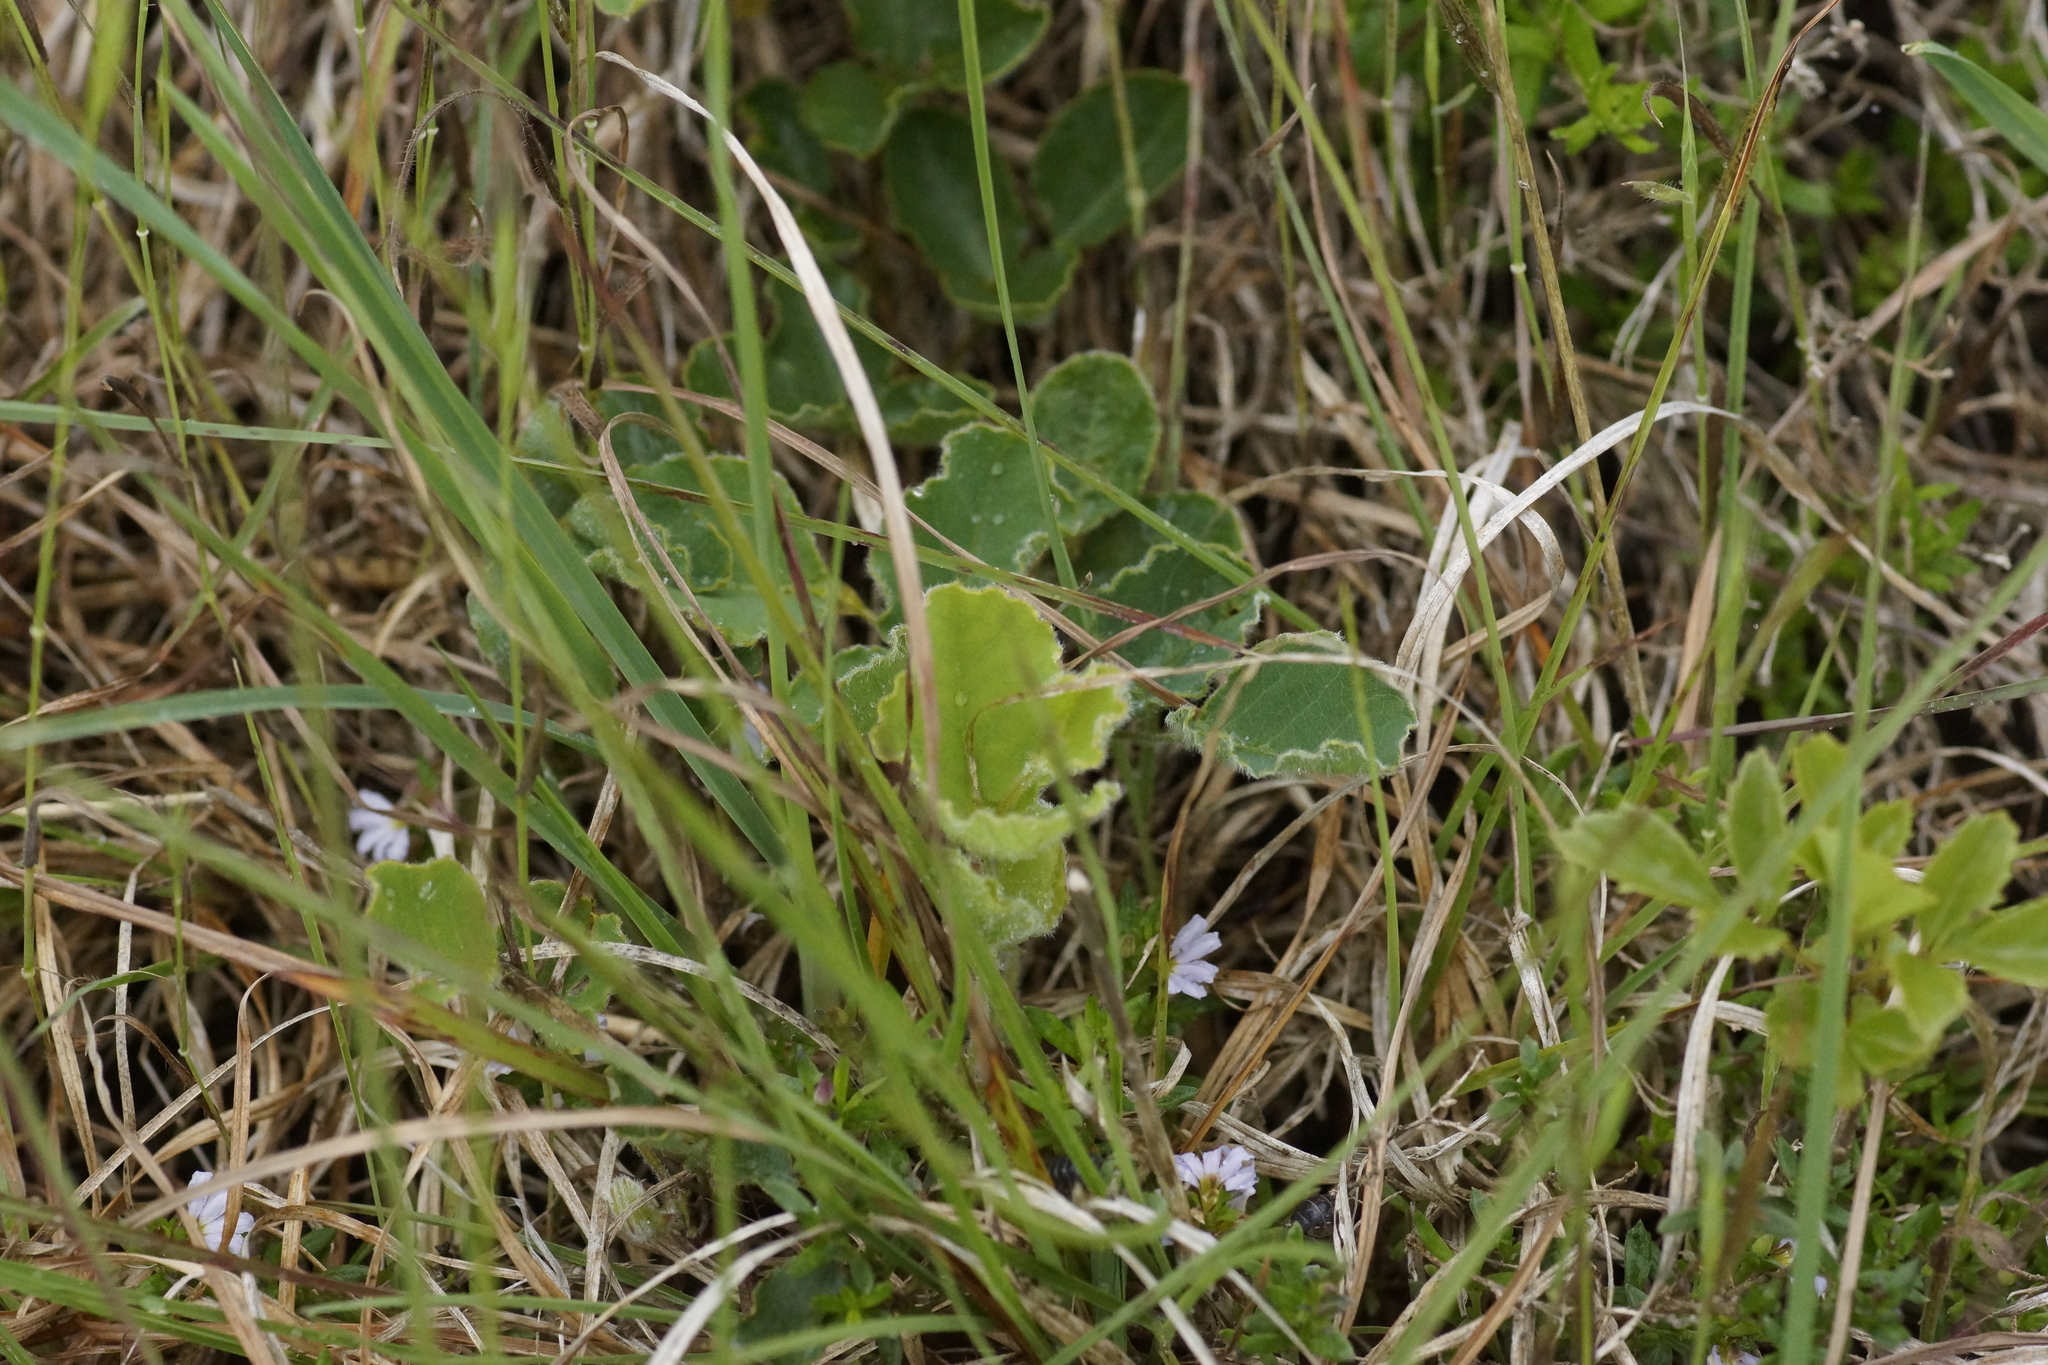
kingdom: Plantae
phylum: Tracheophyta
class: Magnoliopsida
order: Fabales
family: Fabaceae
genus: Kennedia
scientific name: Kennedia prostrata
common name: Running-postman
